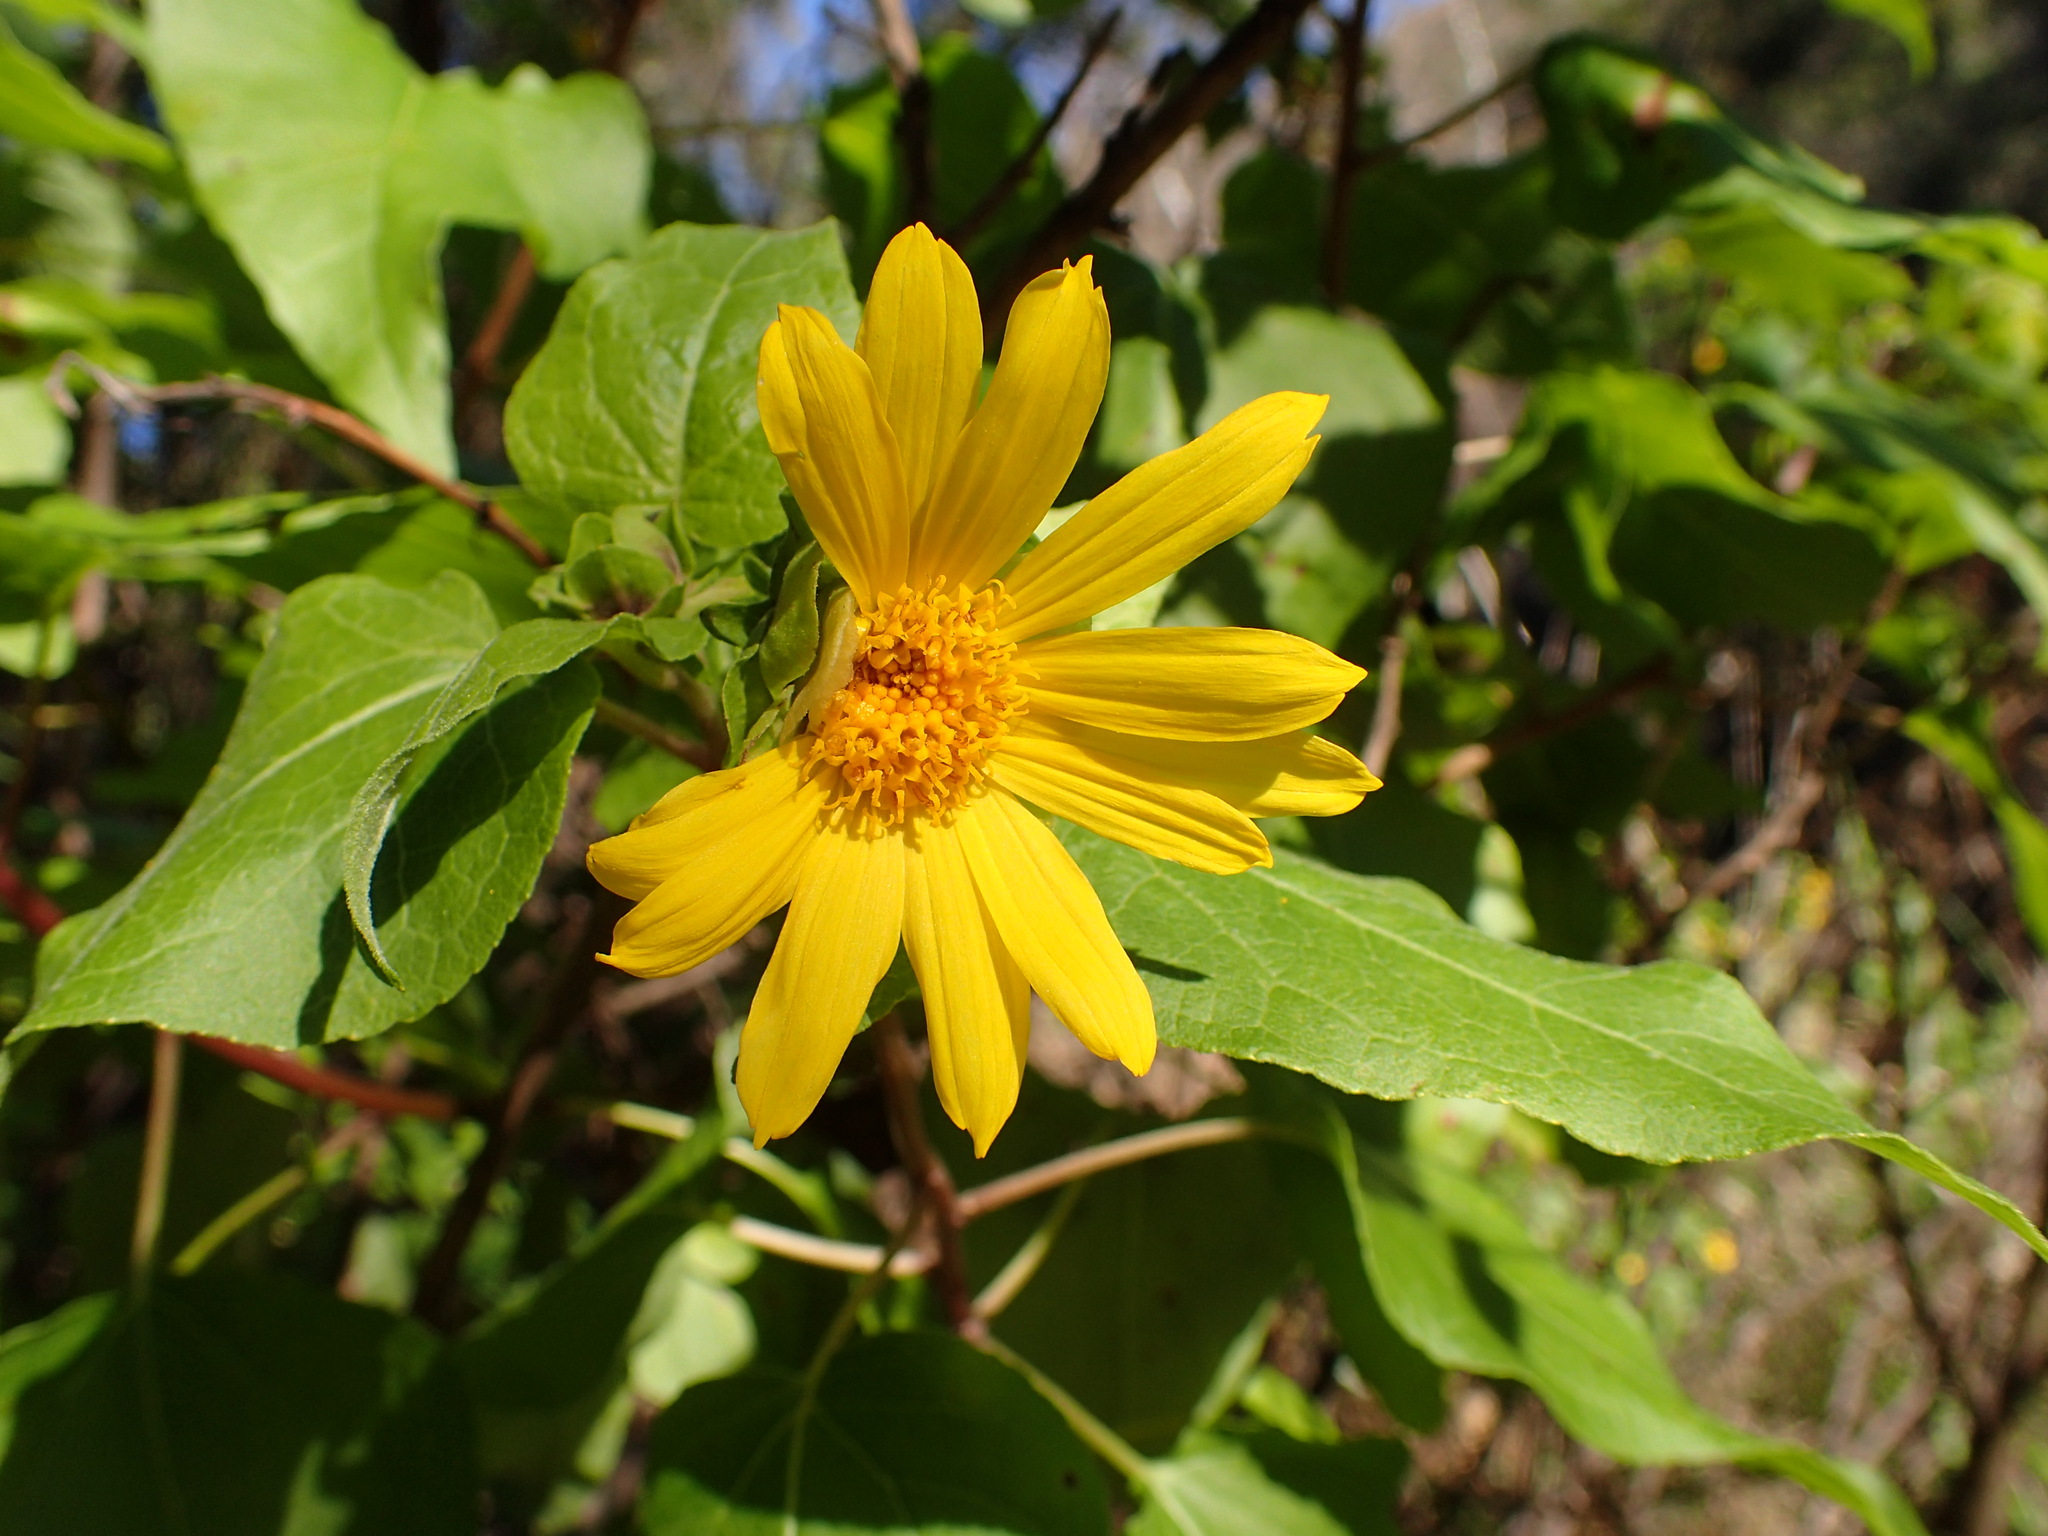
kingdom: Plantae
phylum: Tracheophyta
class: Magnoliopsida
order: Asterales
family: Asteraceae
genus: Venegasia
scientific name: Venegasia carpesioides
